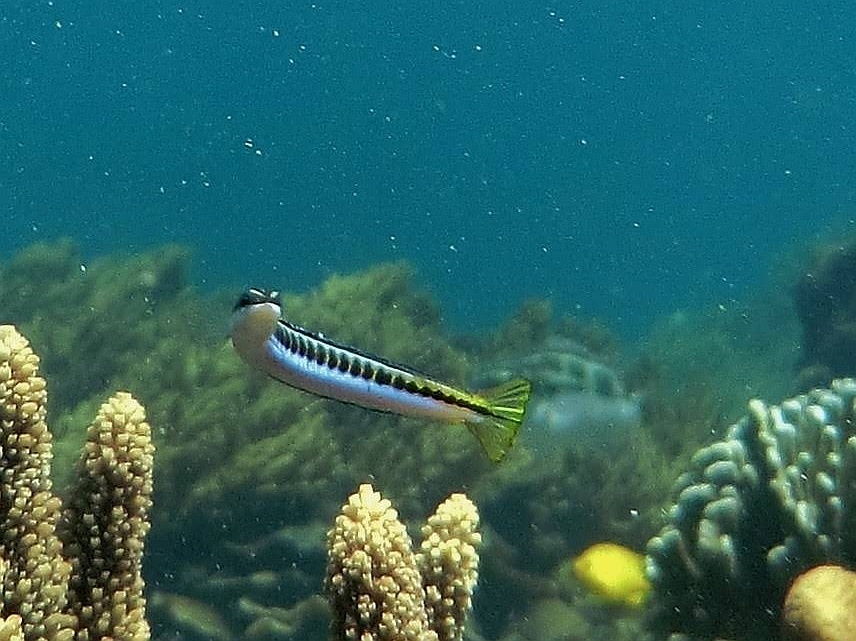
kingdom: Animalia
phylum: Chordata
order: Perciformes
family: Blenniidae
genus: Plagiotremus
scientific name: Plagiotremus tapeinosoma
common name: Hit and run blenny
